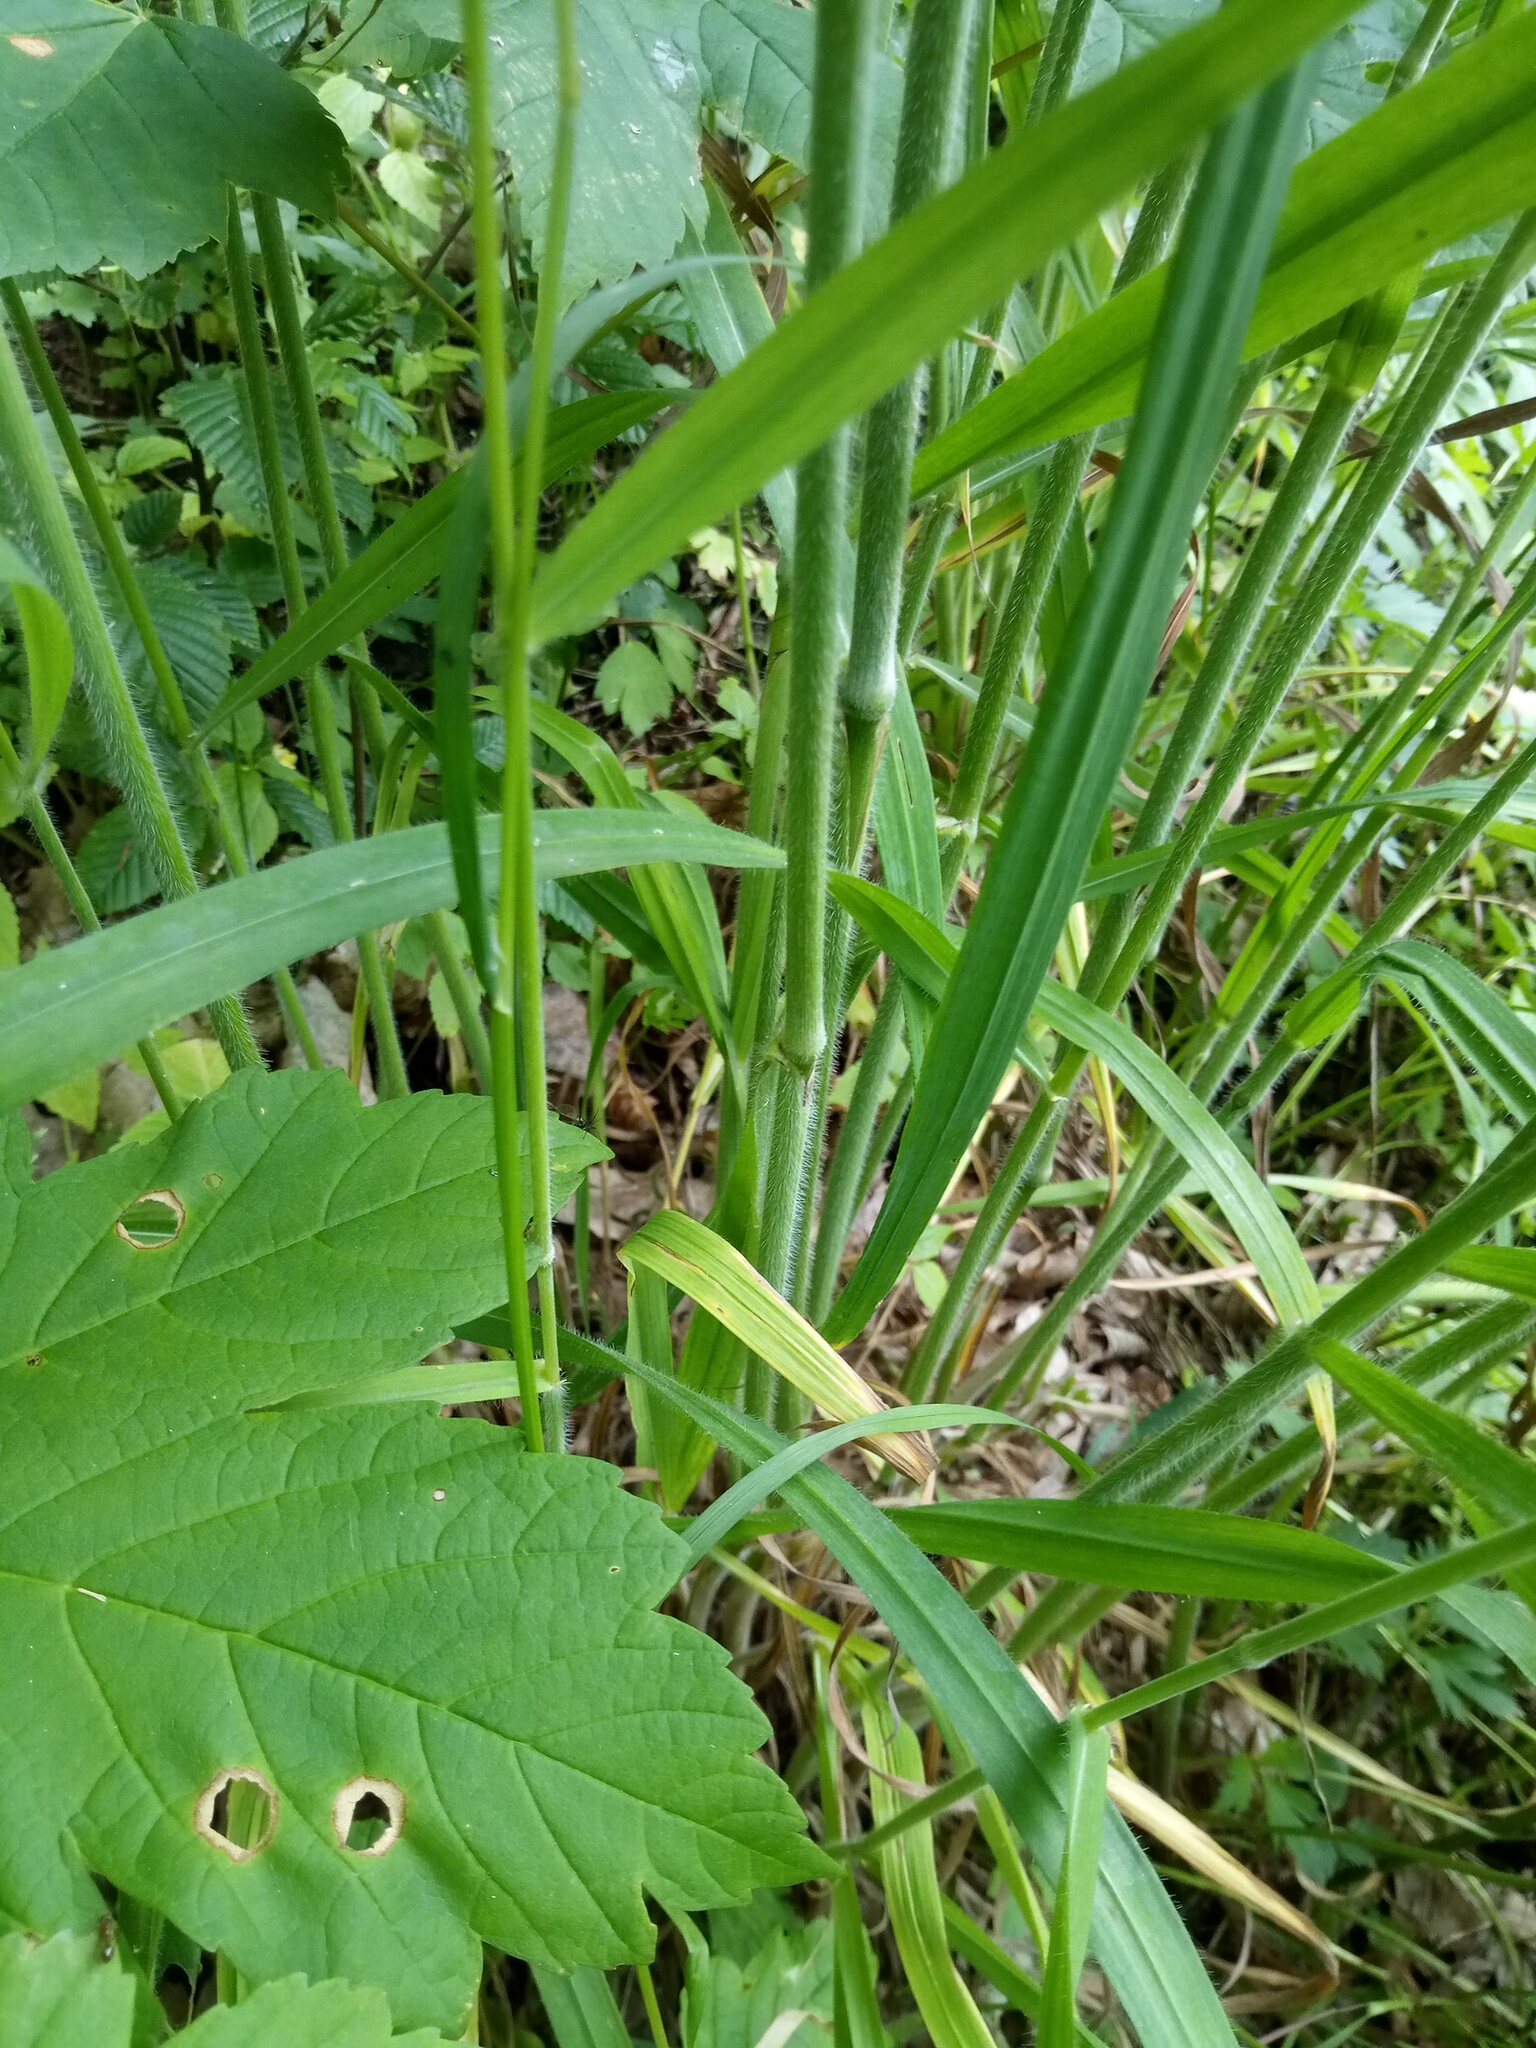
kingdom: Plantae
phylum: Tracheophyta
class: Liliopsida
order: Poales
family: Poaceae
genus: Bromus
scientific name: Bromus benekenii
